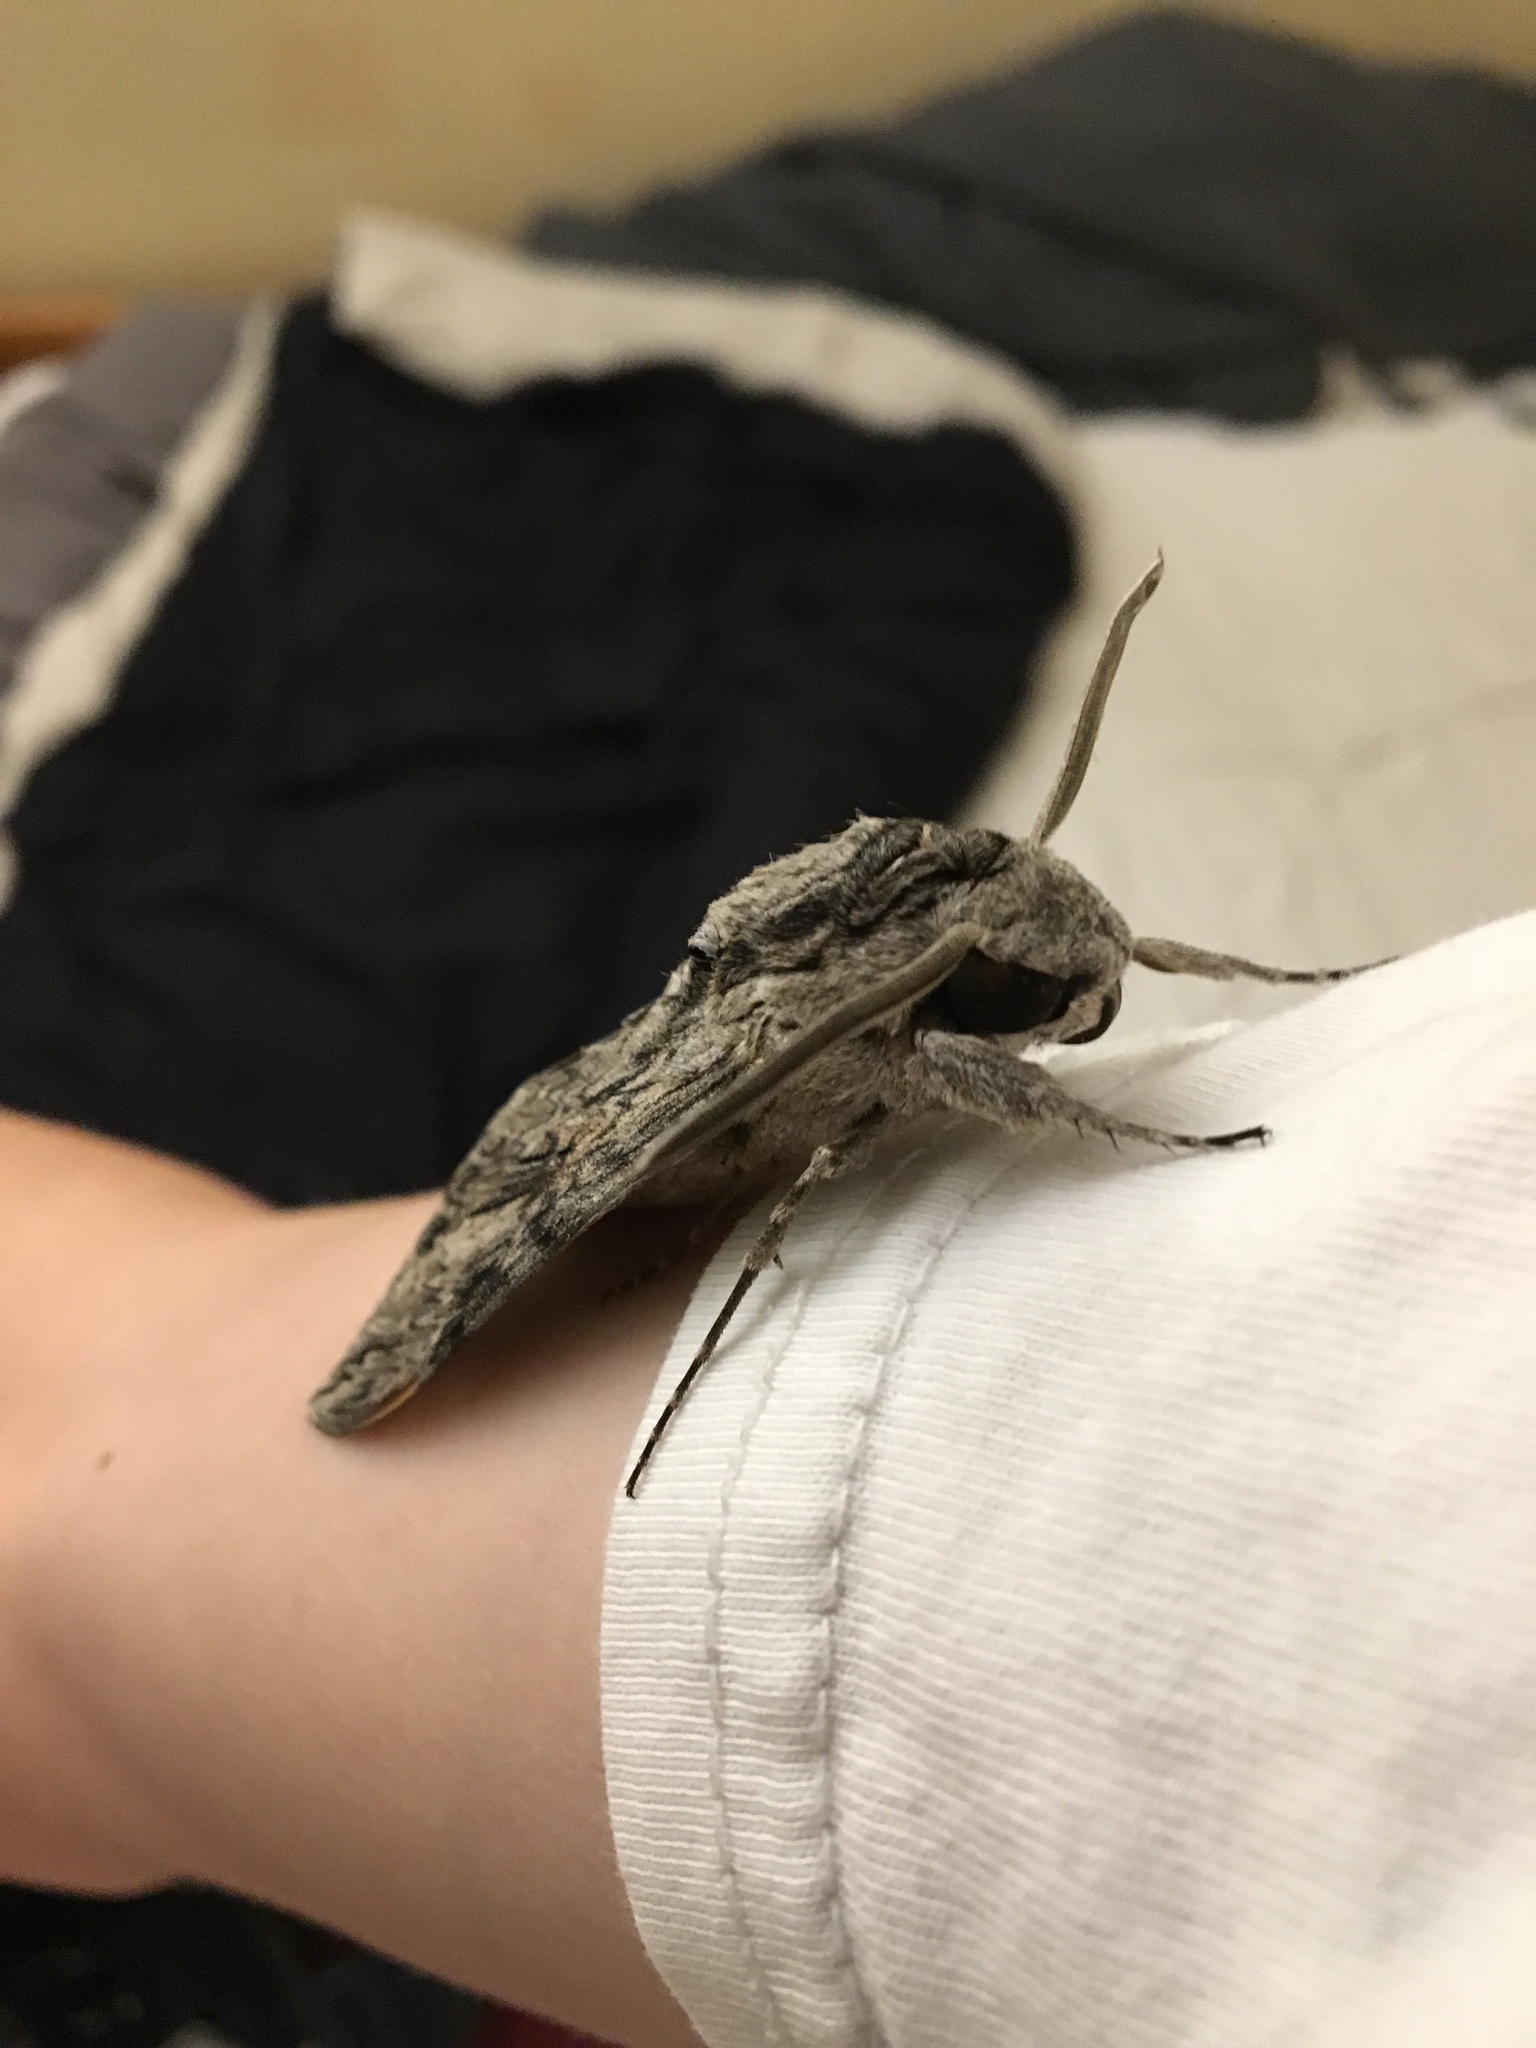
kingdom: Animalia
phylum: Arthropoda
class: Insecta
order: Lepidoptera
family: Sphingidae
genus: Agrius
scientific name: Agrius convolvuli
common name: Convolvulus hawkmoth
